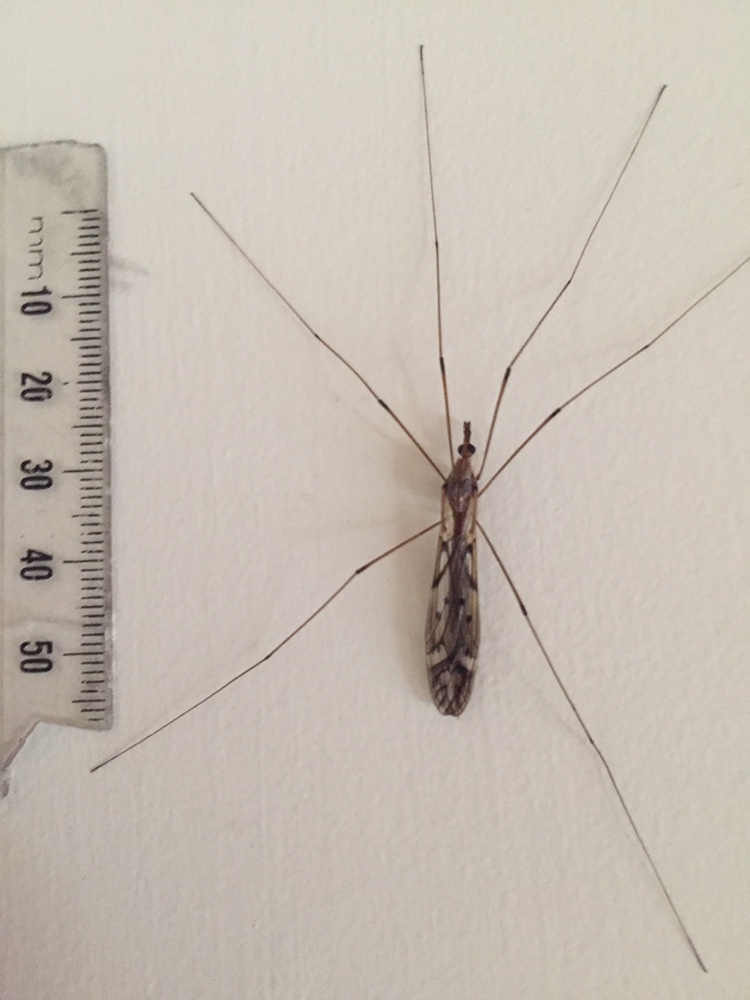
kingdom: Animalia
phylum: Arthropoda
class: Insecta
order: Diptera
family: Tipulidae
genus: Zelandotipula
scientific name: Zelandotipula novarae
